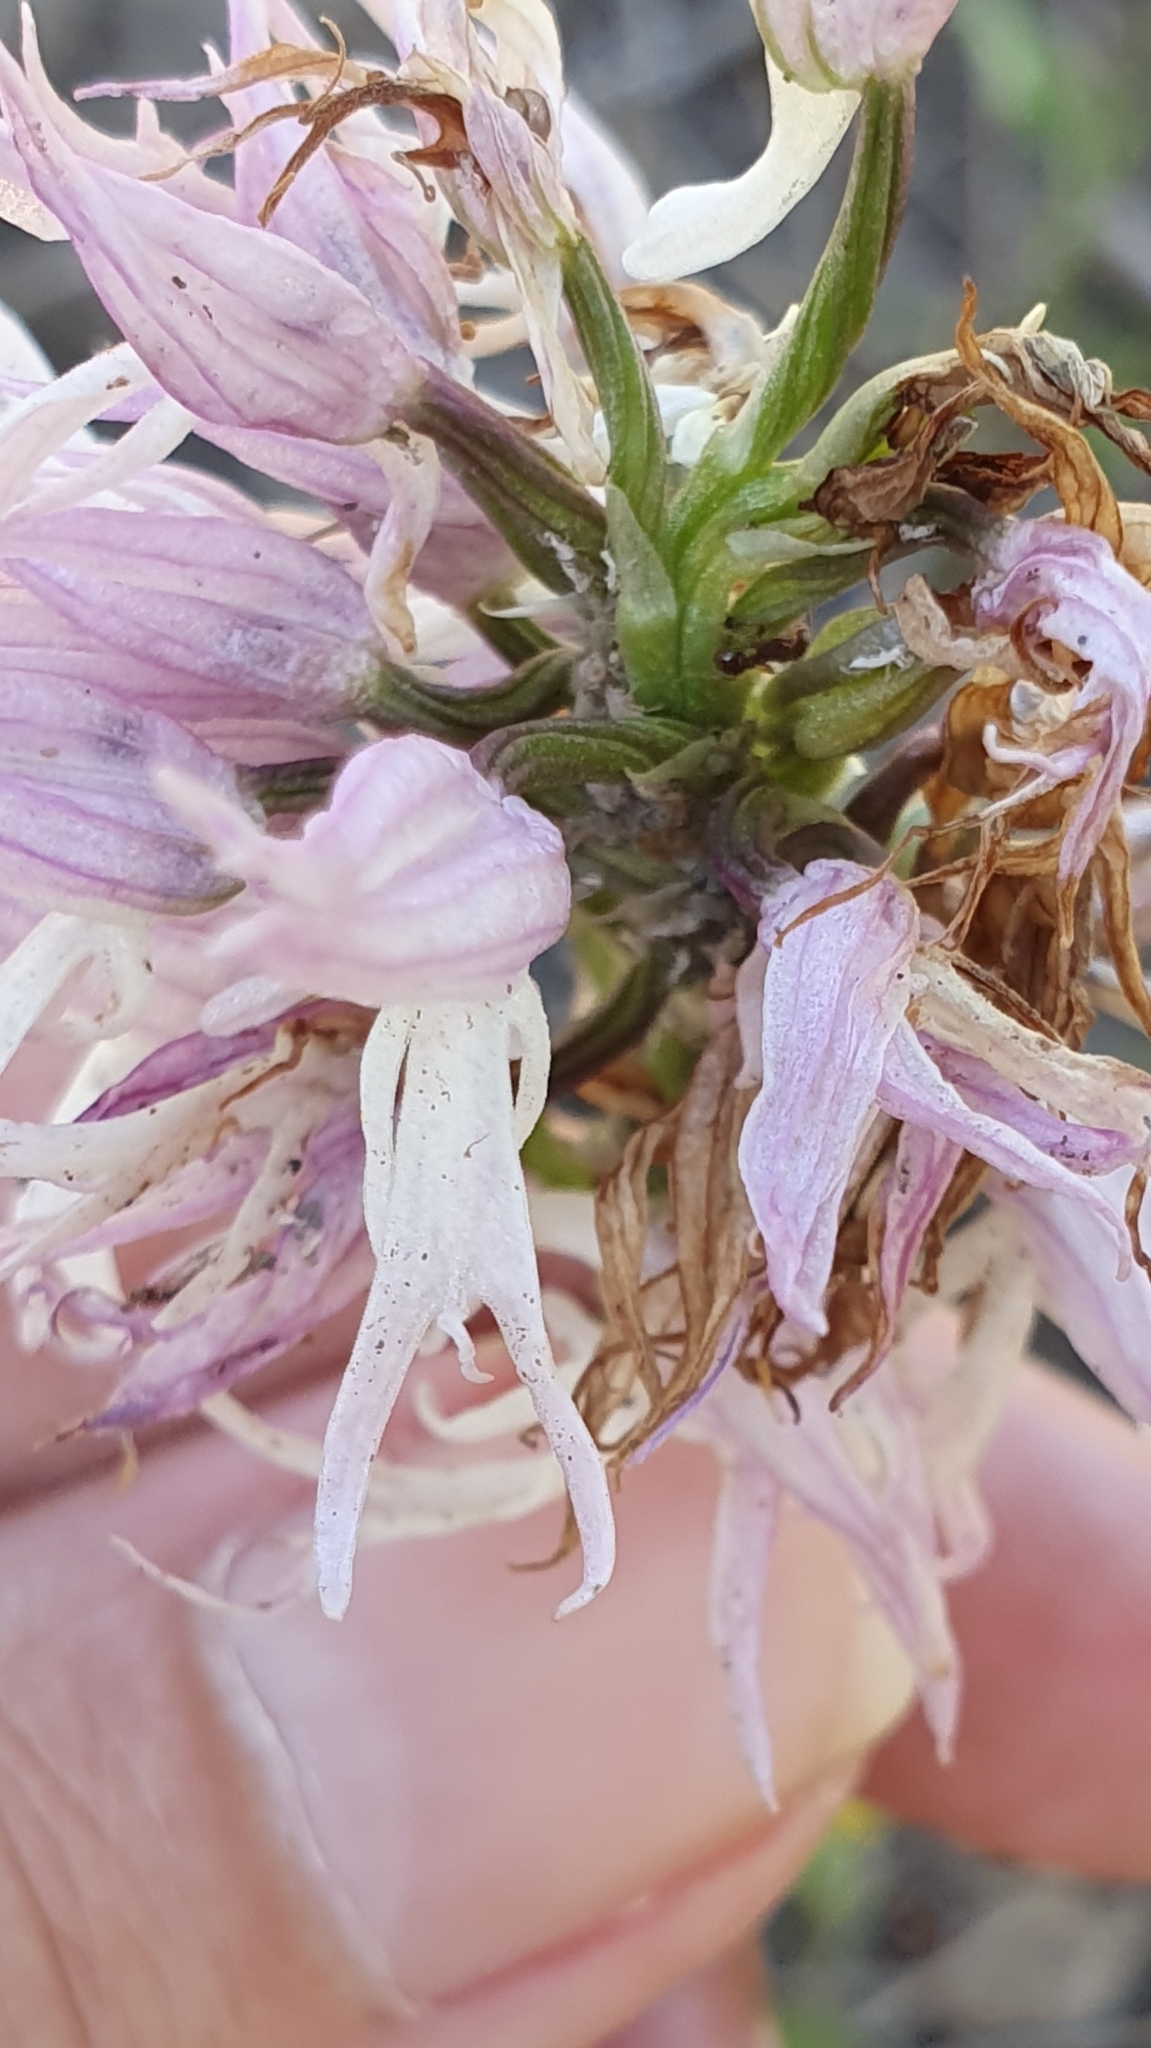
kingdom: Plantae
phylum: Tracheophyta
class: Liliopsida
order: Asparagales
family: Orchidaceae
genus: Orchis
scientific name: Orchis italica
